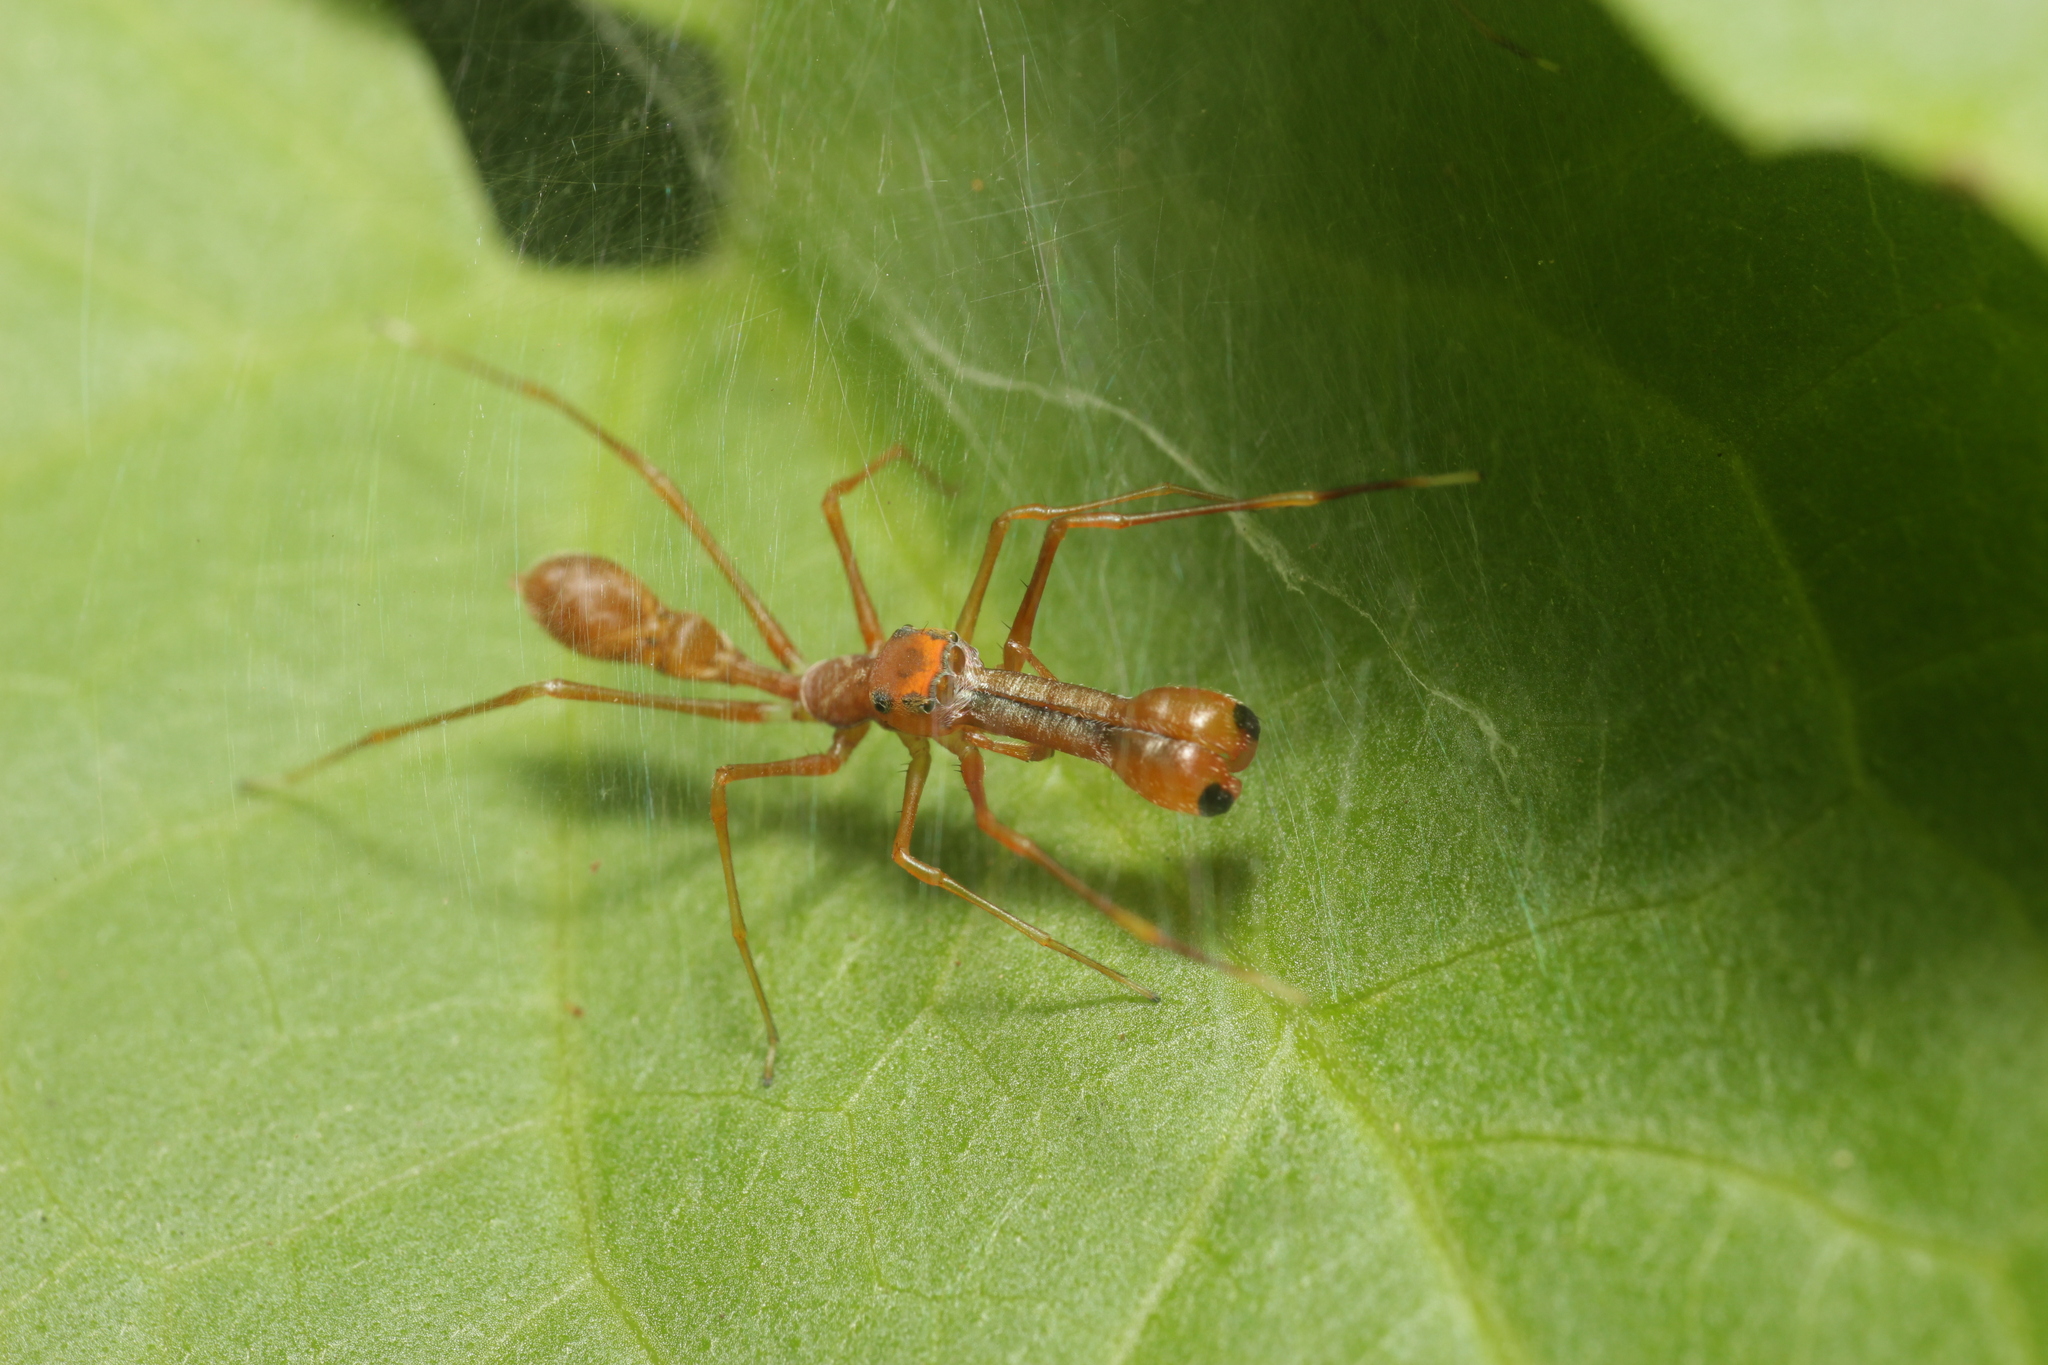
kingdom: Animalia
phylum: Arthropoda
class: Arachnida
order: Araneae
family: Salticidae
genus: Myrmaplata
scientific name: Myrmaplata plataleoides
